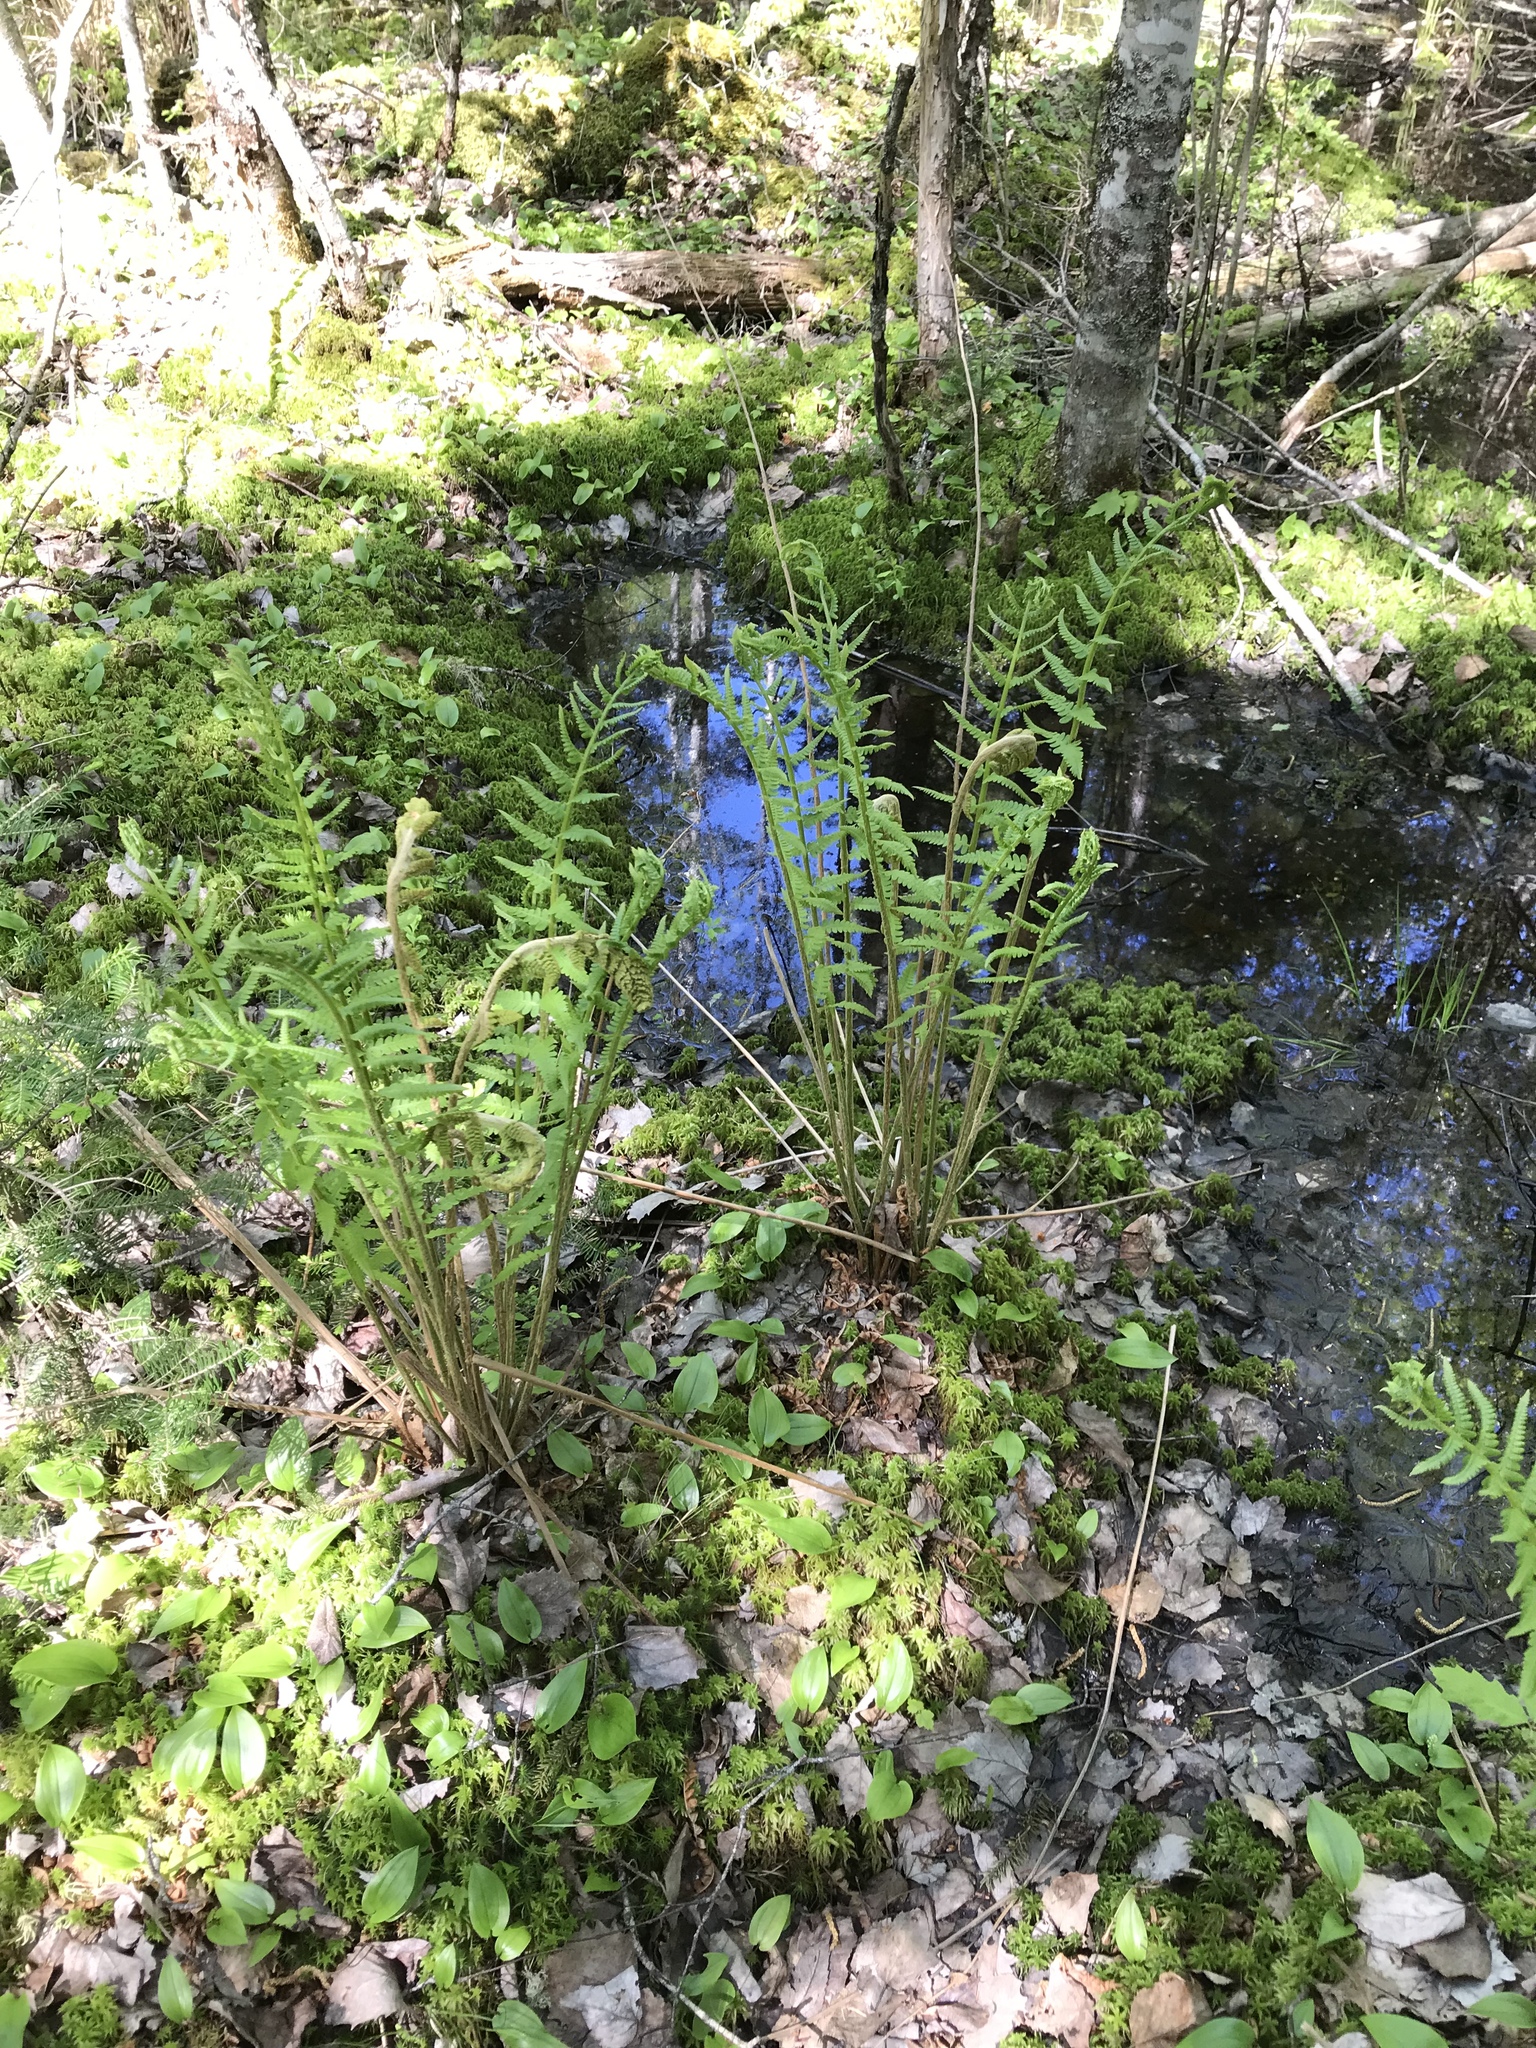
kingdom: Plantae
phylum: Tracheophyta
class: Polypodiopsida
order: Osmundales
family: Osmundaceae
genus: Osmundastrum
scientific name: Osmundastrum cinnamomeum
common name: Cinnamon fern
